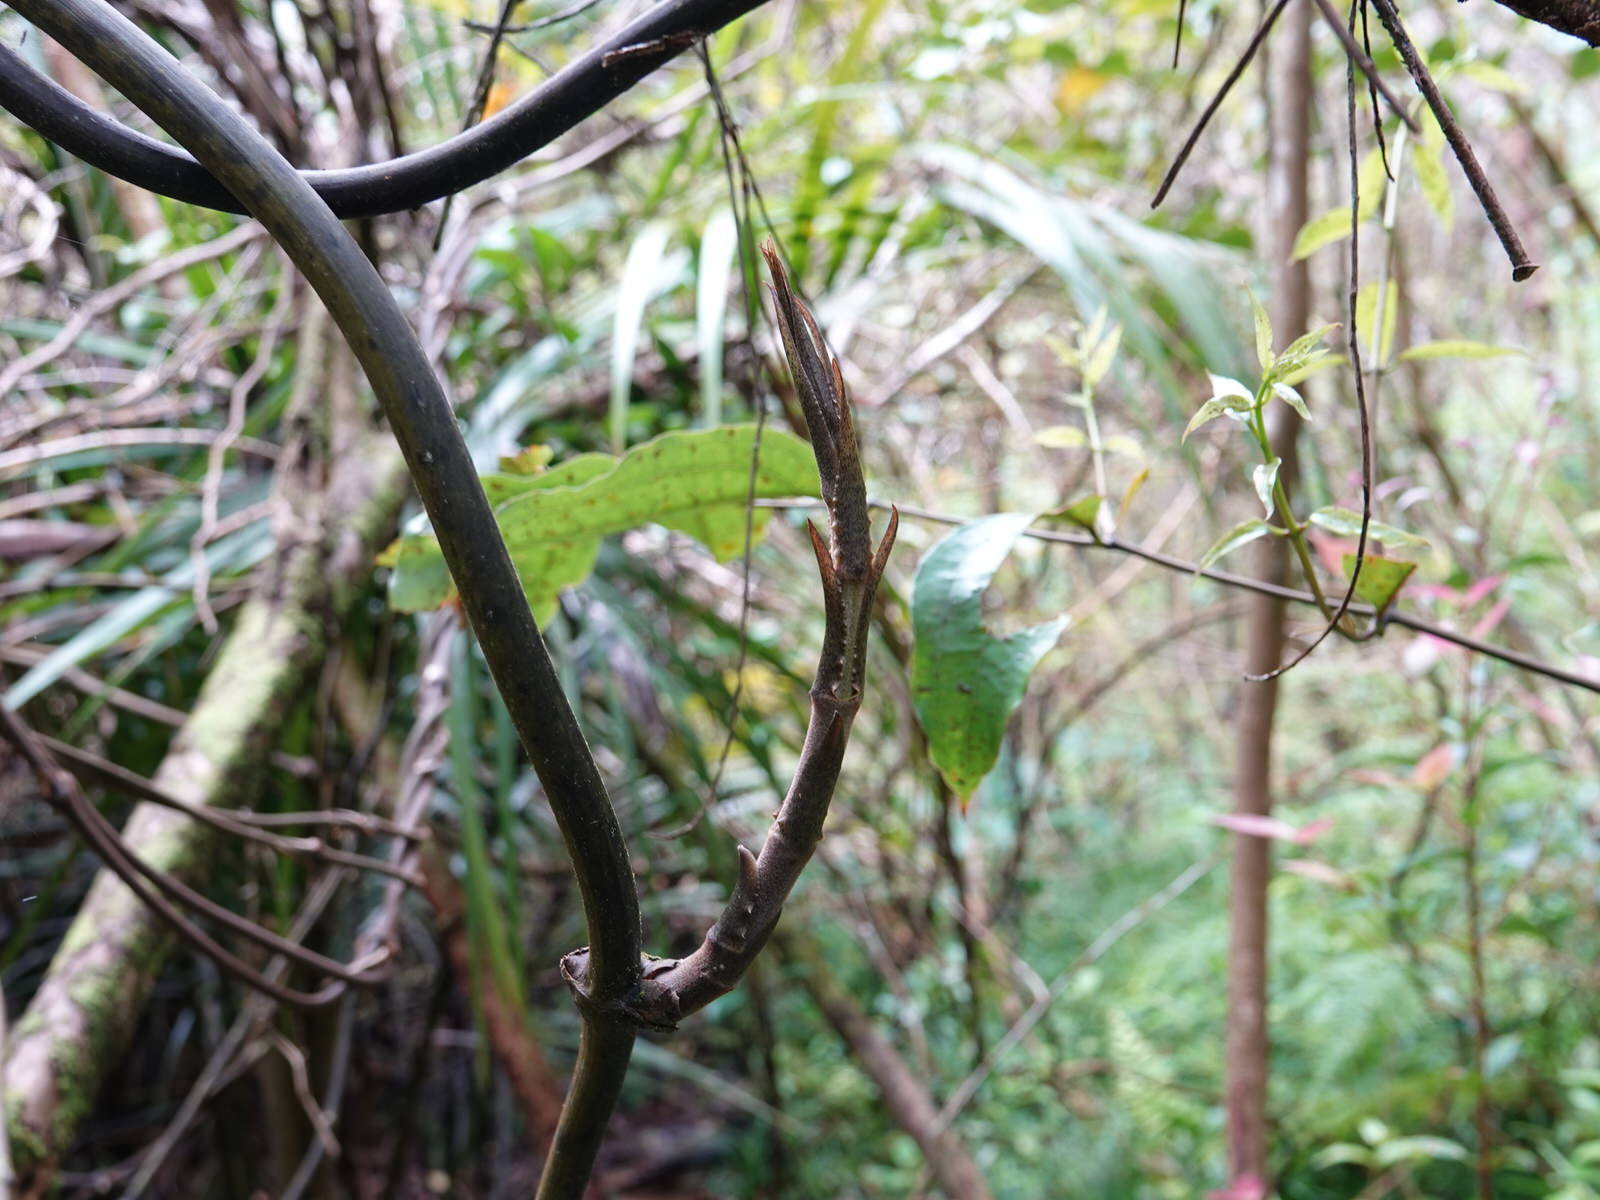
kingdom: Plantae
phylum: Tracheophyta
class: Liliopsida
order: Liliales
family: Ripogonaceae
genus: Ripogonum
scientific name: Ripogonum scandens
